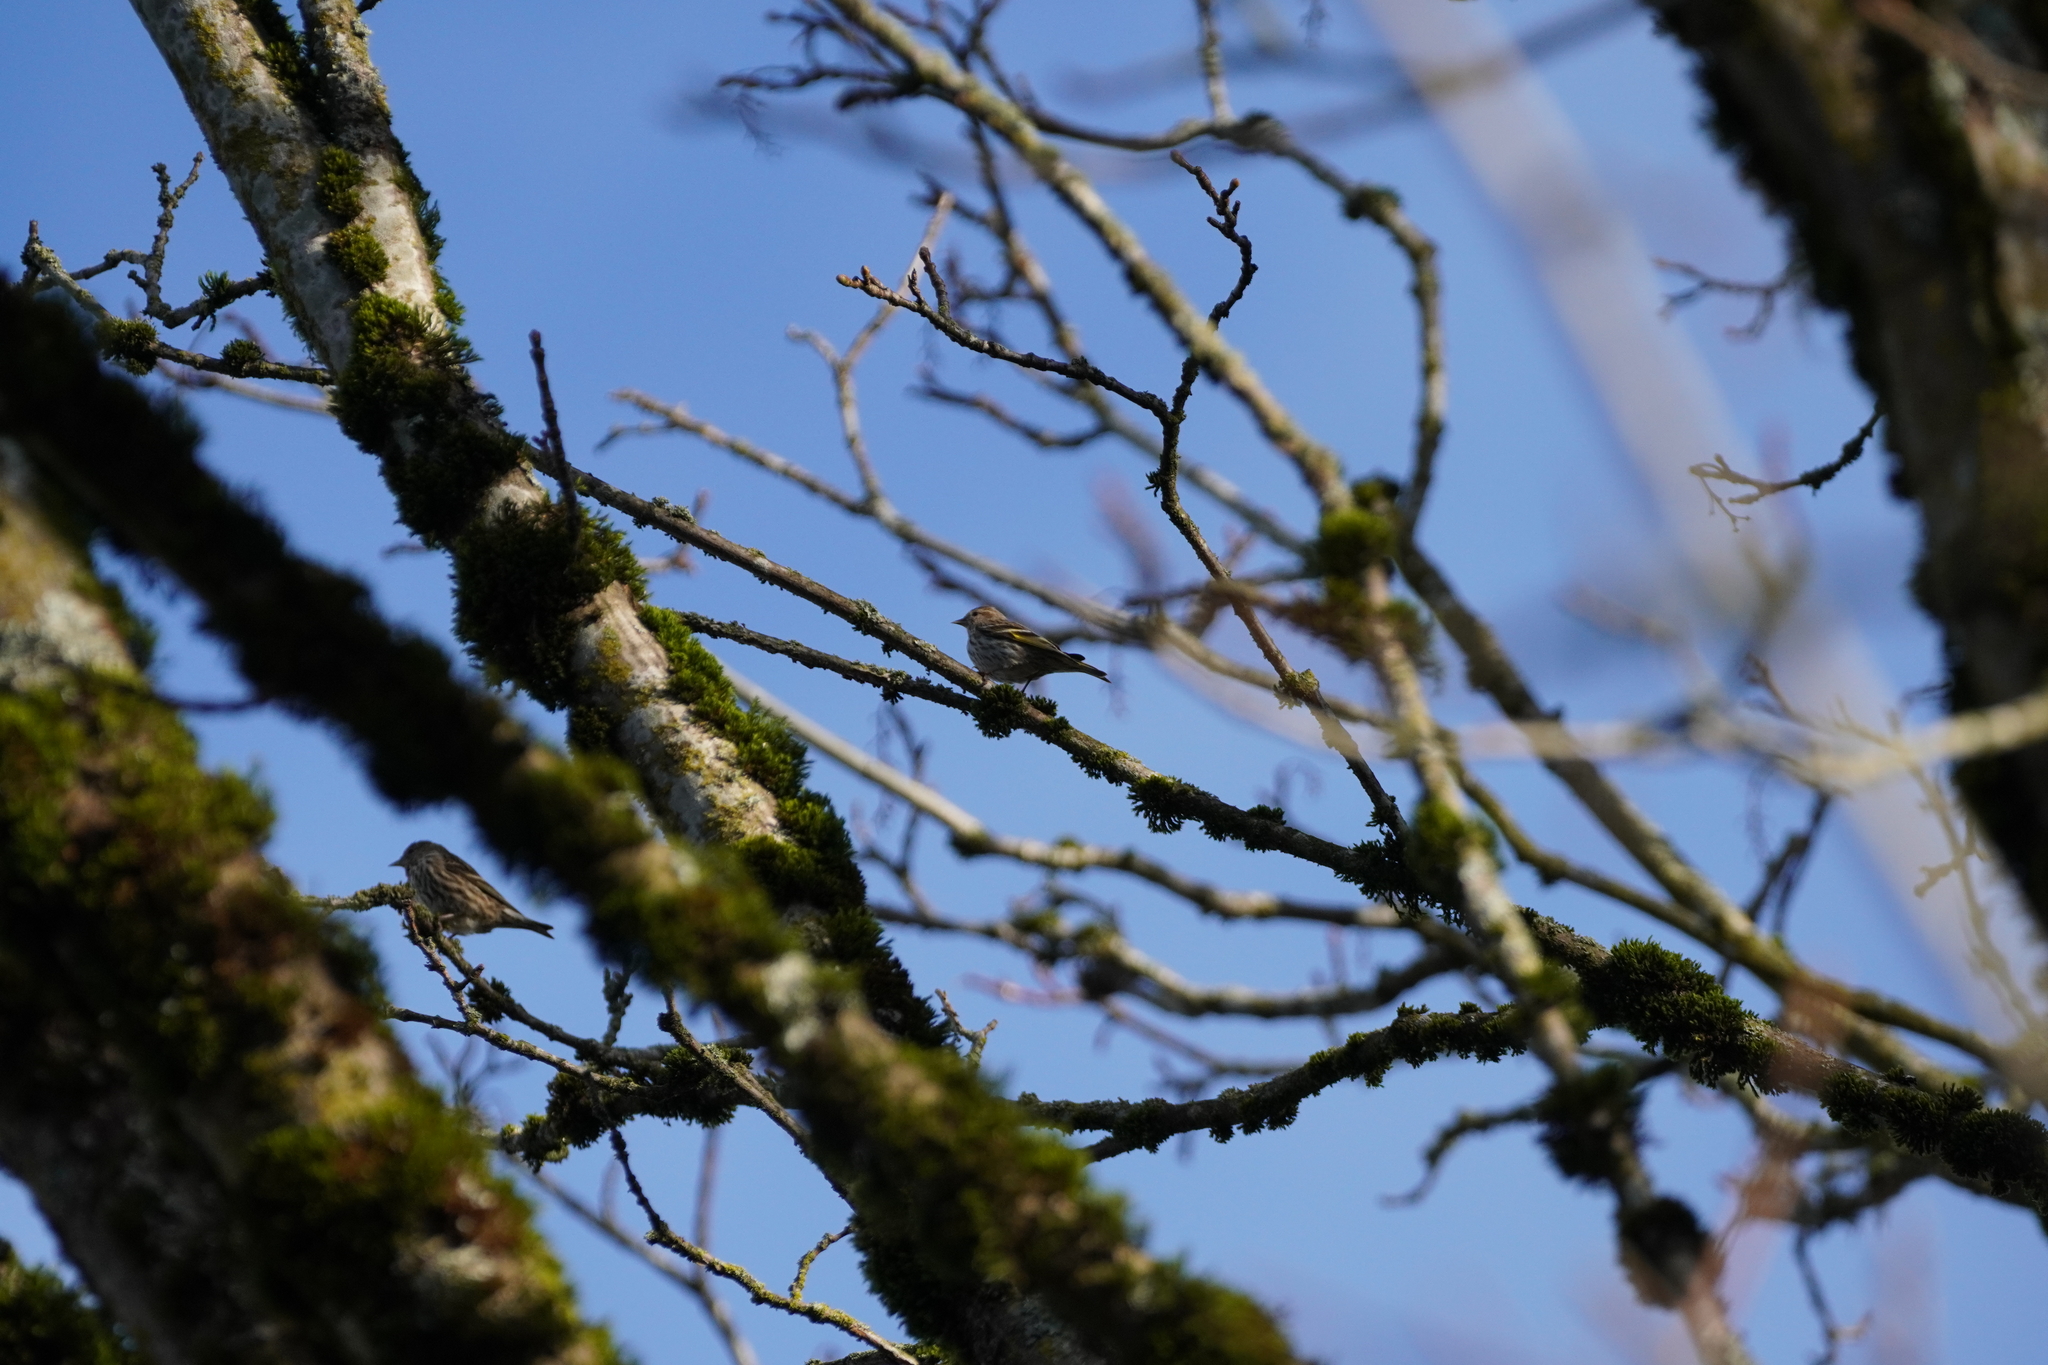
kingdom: Animalia
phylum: Chordata
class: Aves
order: Passeriformes
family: Fringillidae
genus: Spinus
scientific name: Spinus pinus
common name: Pine siskin
